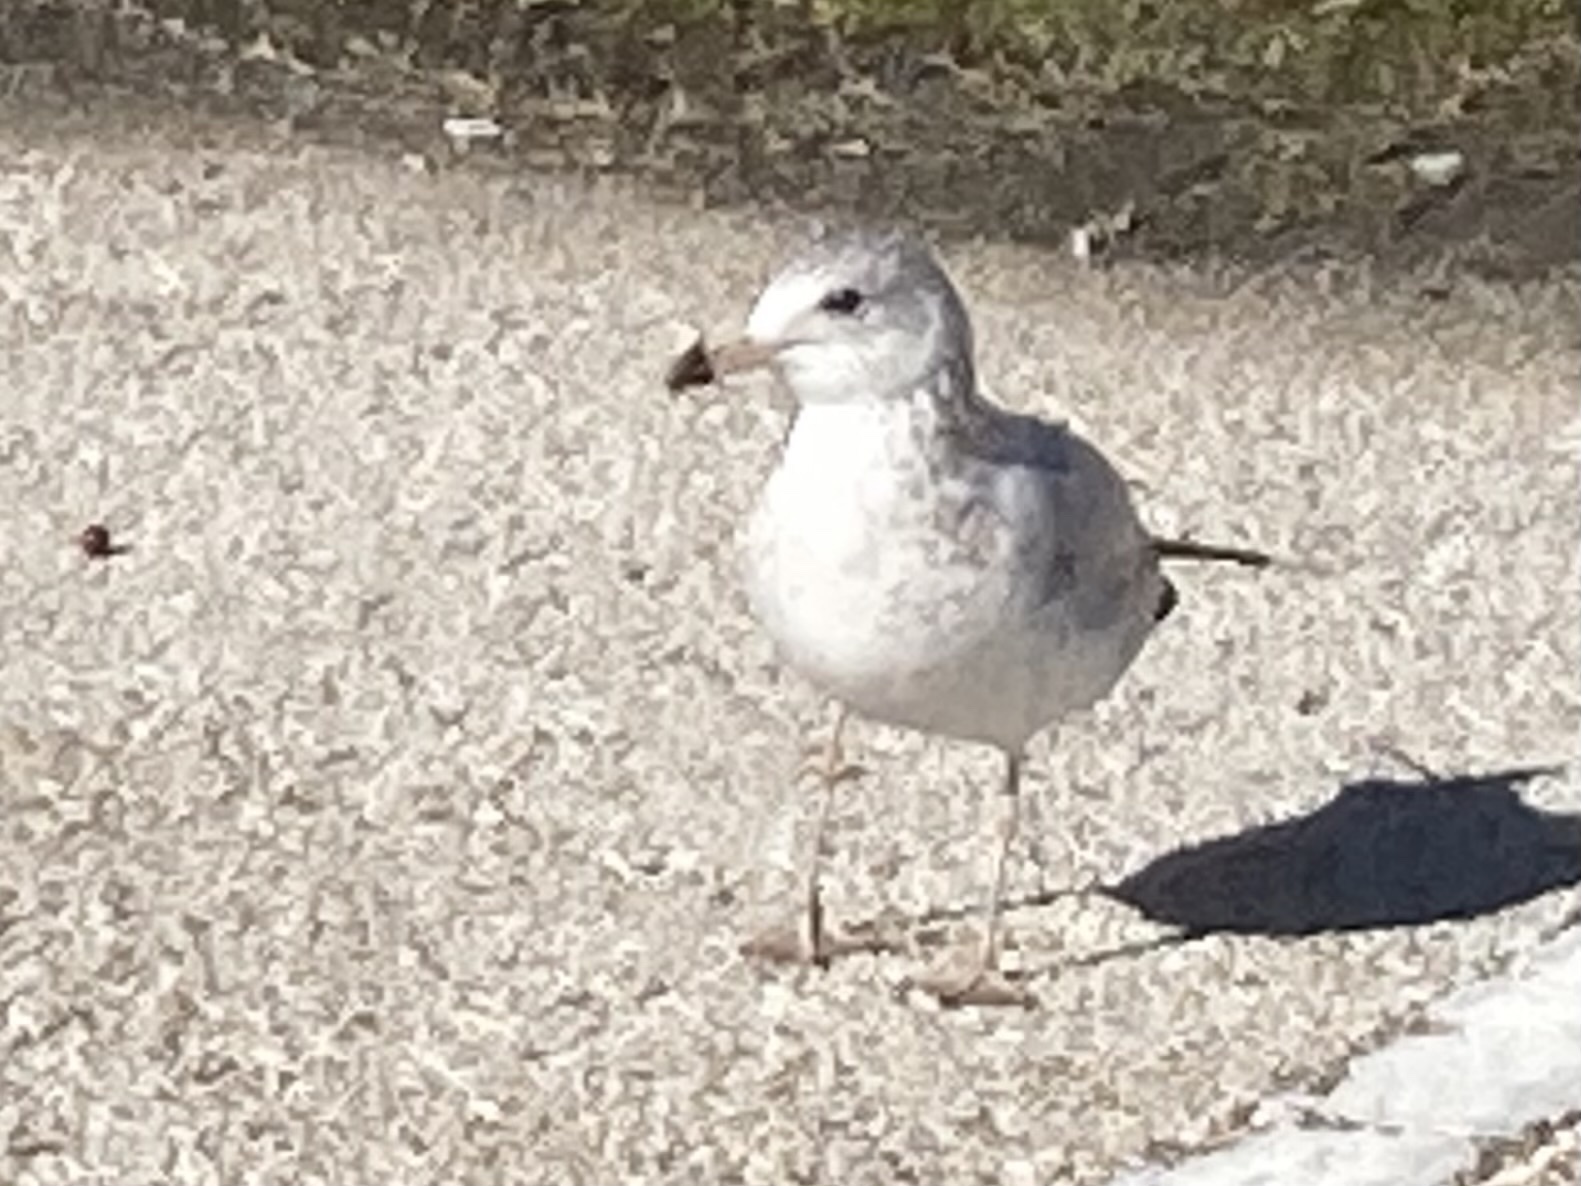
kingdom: Animalia
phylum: Chordata
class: Aves
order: Charadriiformes
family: Laridae
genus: Larus
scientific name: Larus delawarensis
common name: Ring-billed gull
